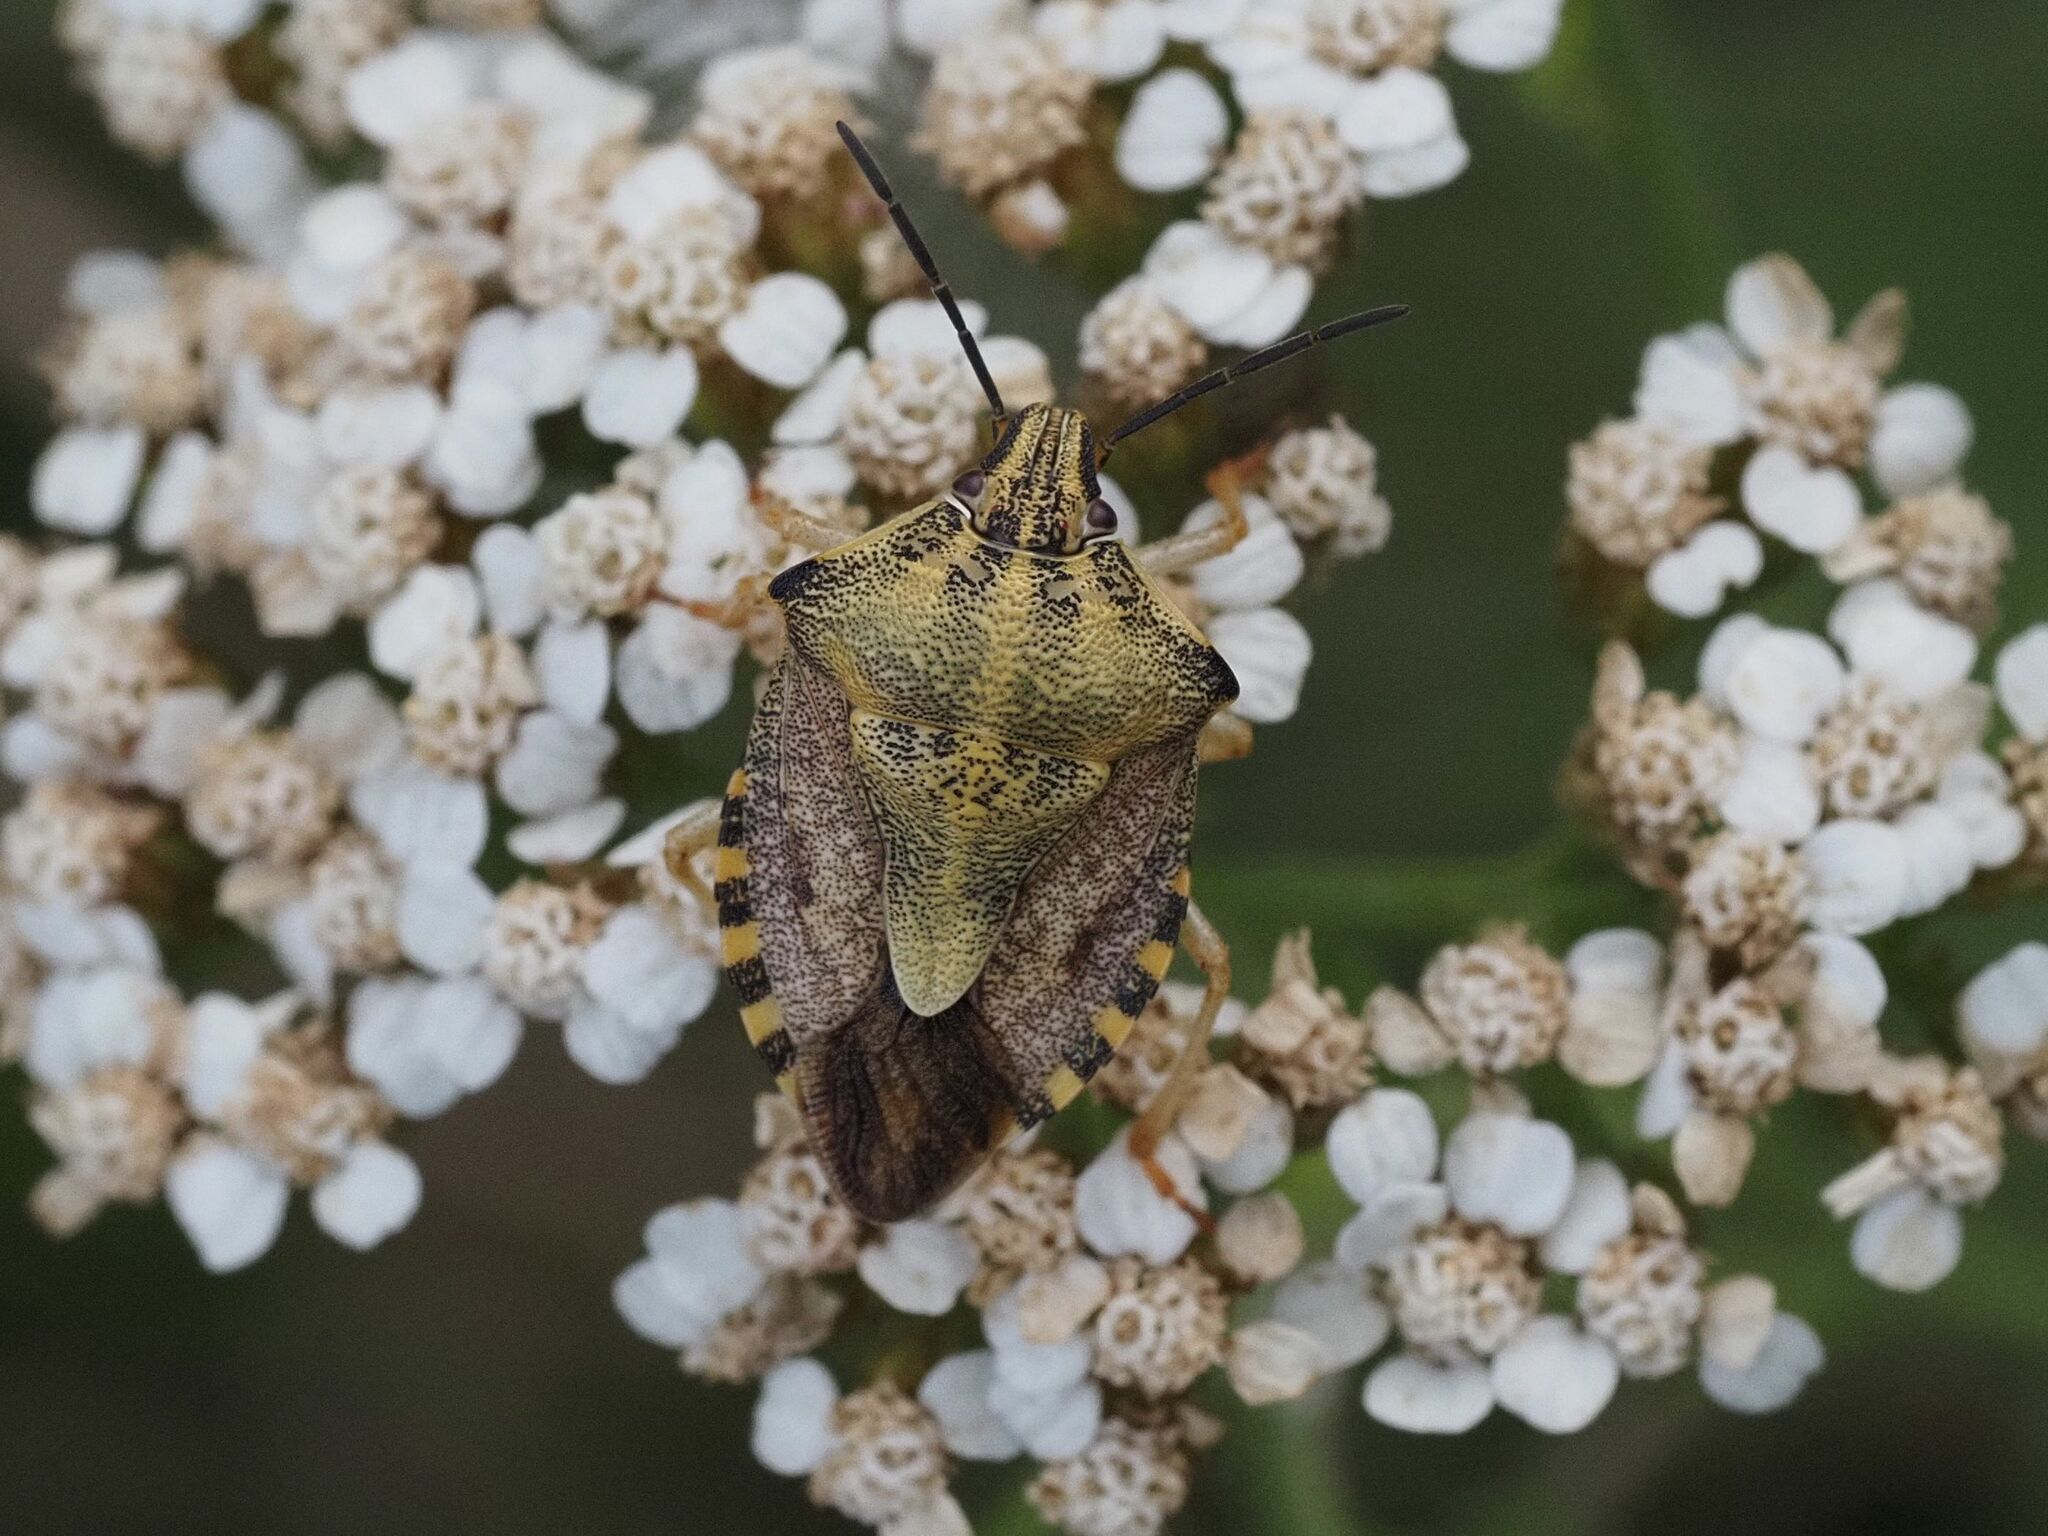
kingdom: Animalia
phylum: Arthropoda
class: Insecta
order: Hemiptera
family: Pentatomidae
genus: Carpocoris
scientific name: Carpocoris purpureipennis
